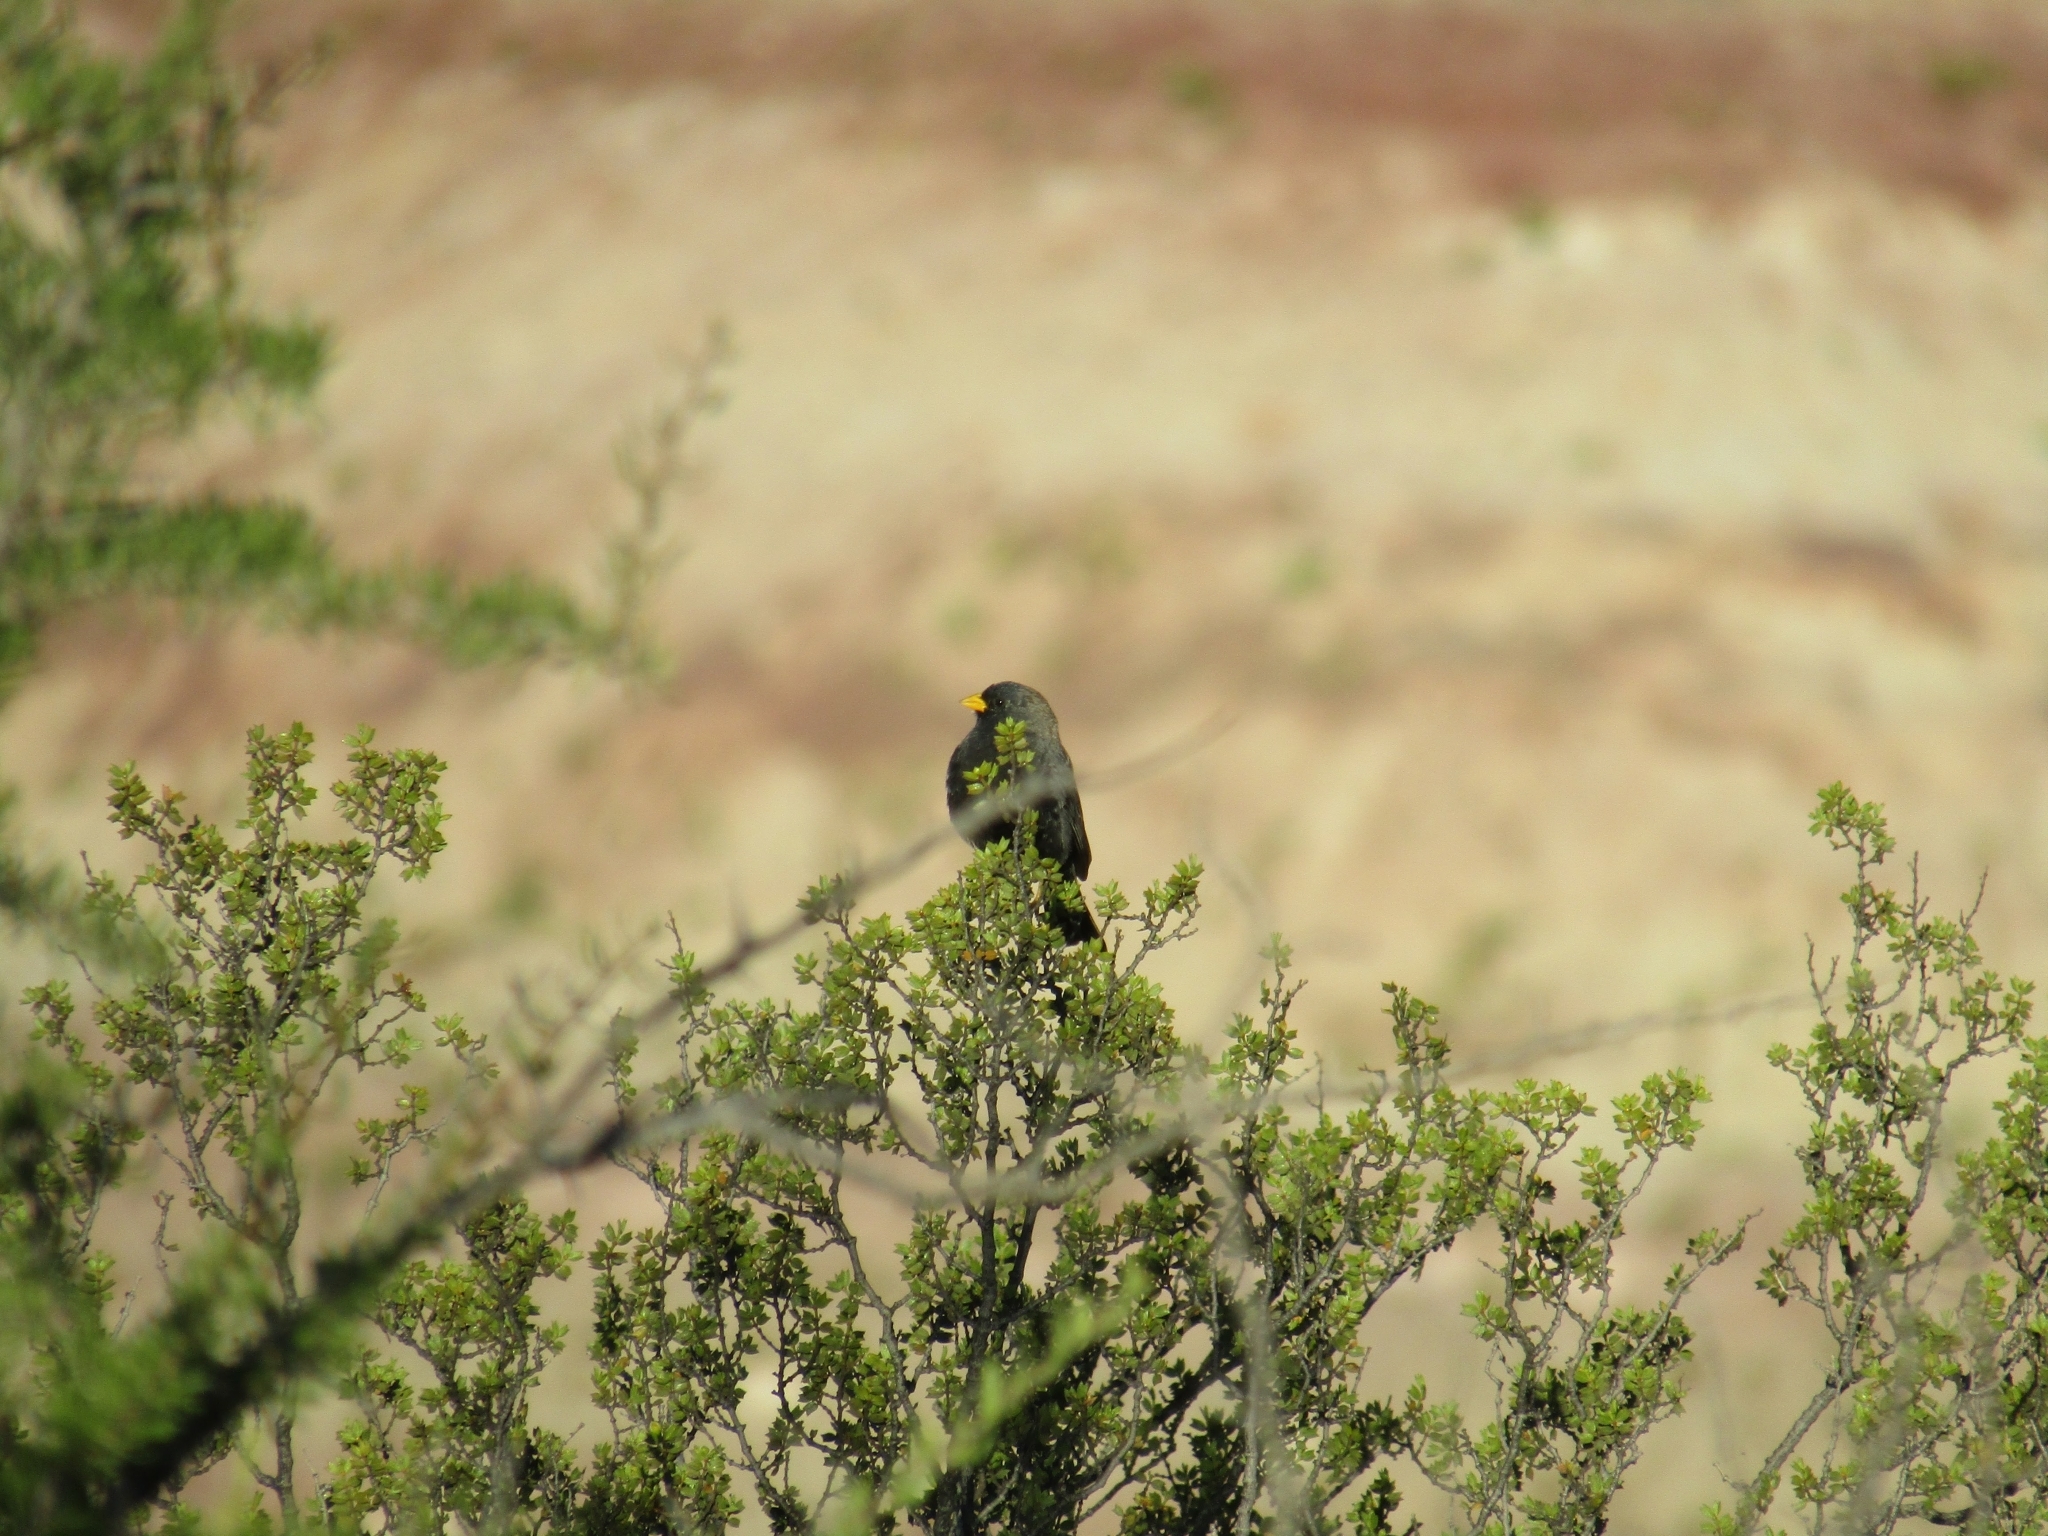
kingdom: Animalia
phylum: Chordata
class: Aves
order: Passeriformes
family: Thraupidae
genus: Porphyrospiza
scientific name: Porphyrospiza carbonaria
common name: Carbon finch
